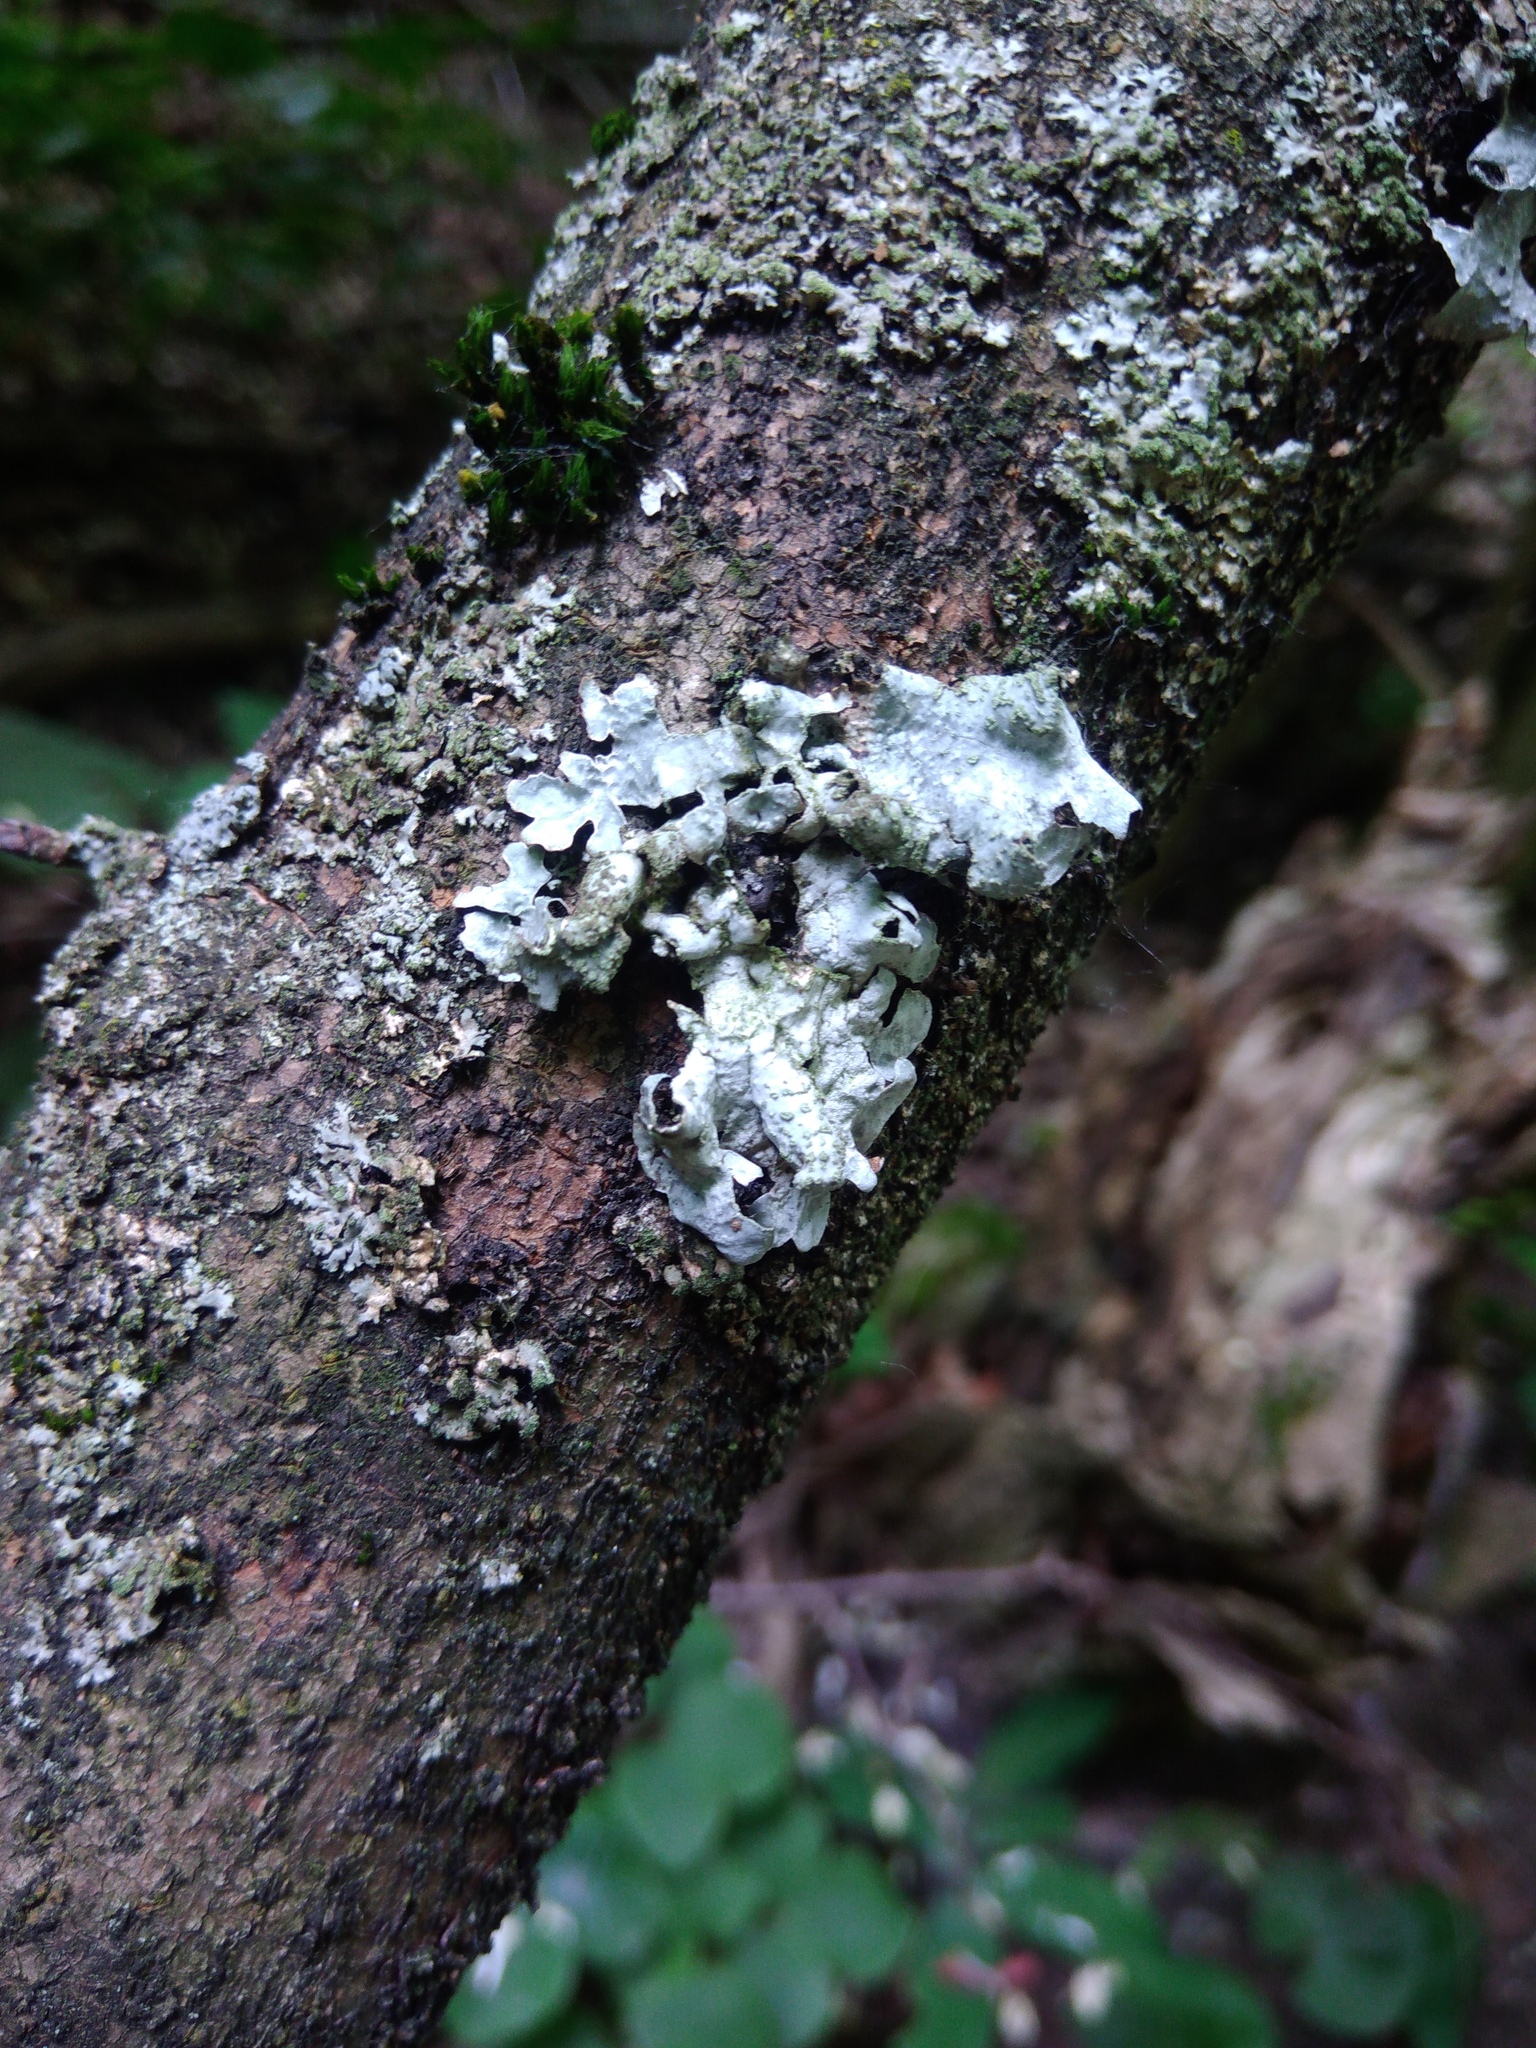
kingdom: Fungi
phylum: Ascomycota
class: Lecanoromycetes
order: Lecanorales
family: Parmeliaceae
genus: Parmelia
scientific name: Parmelia sulcata
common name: Netted shield lichen
